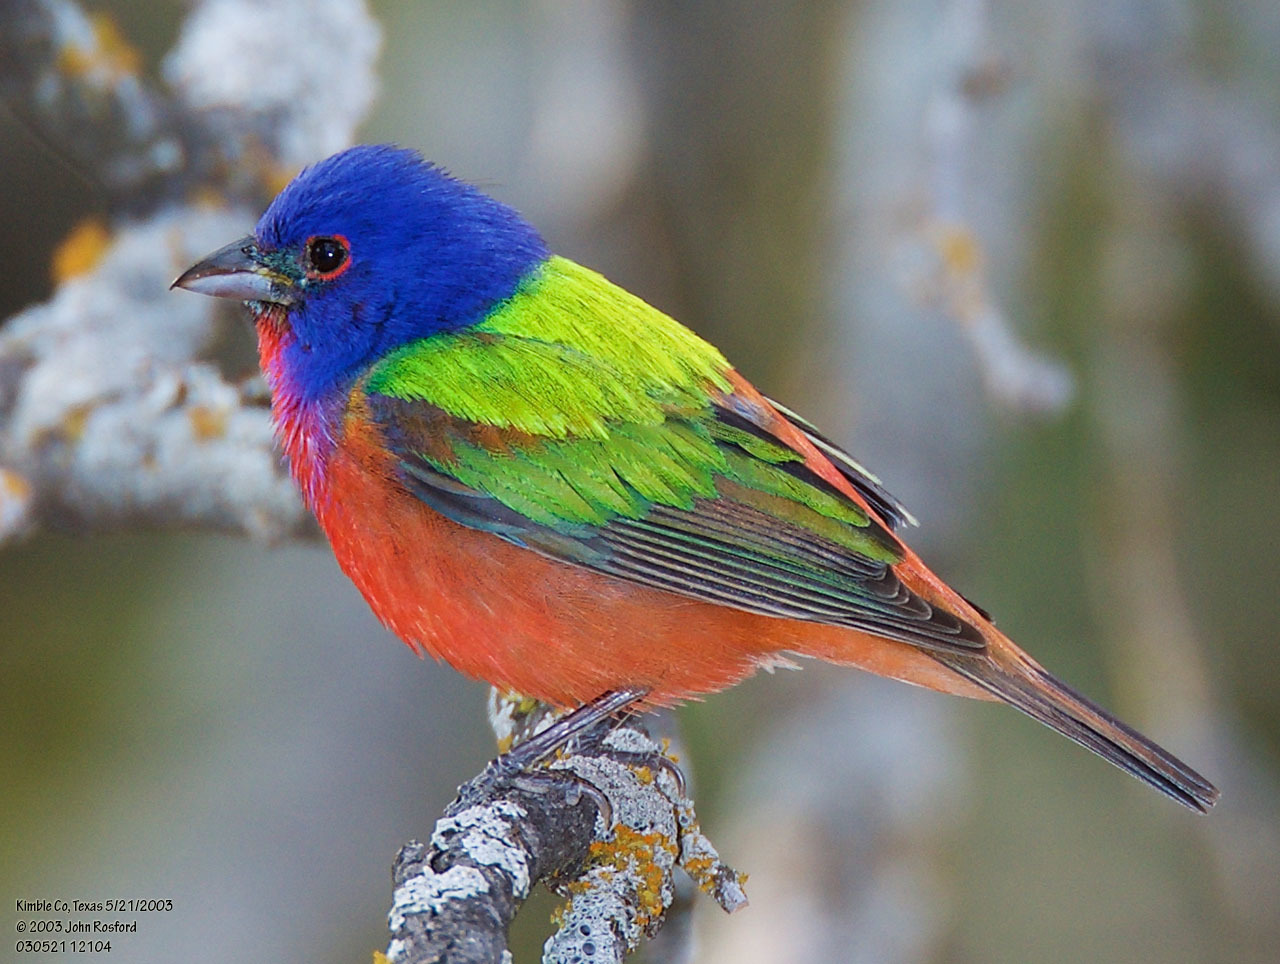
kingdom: Animalia
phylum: Chordata
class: Aves
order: Passeriformes
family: Cardinalidae
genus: Passerina
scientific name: Passerina ciris
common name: Painted bunting
